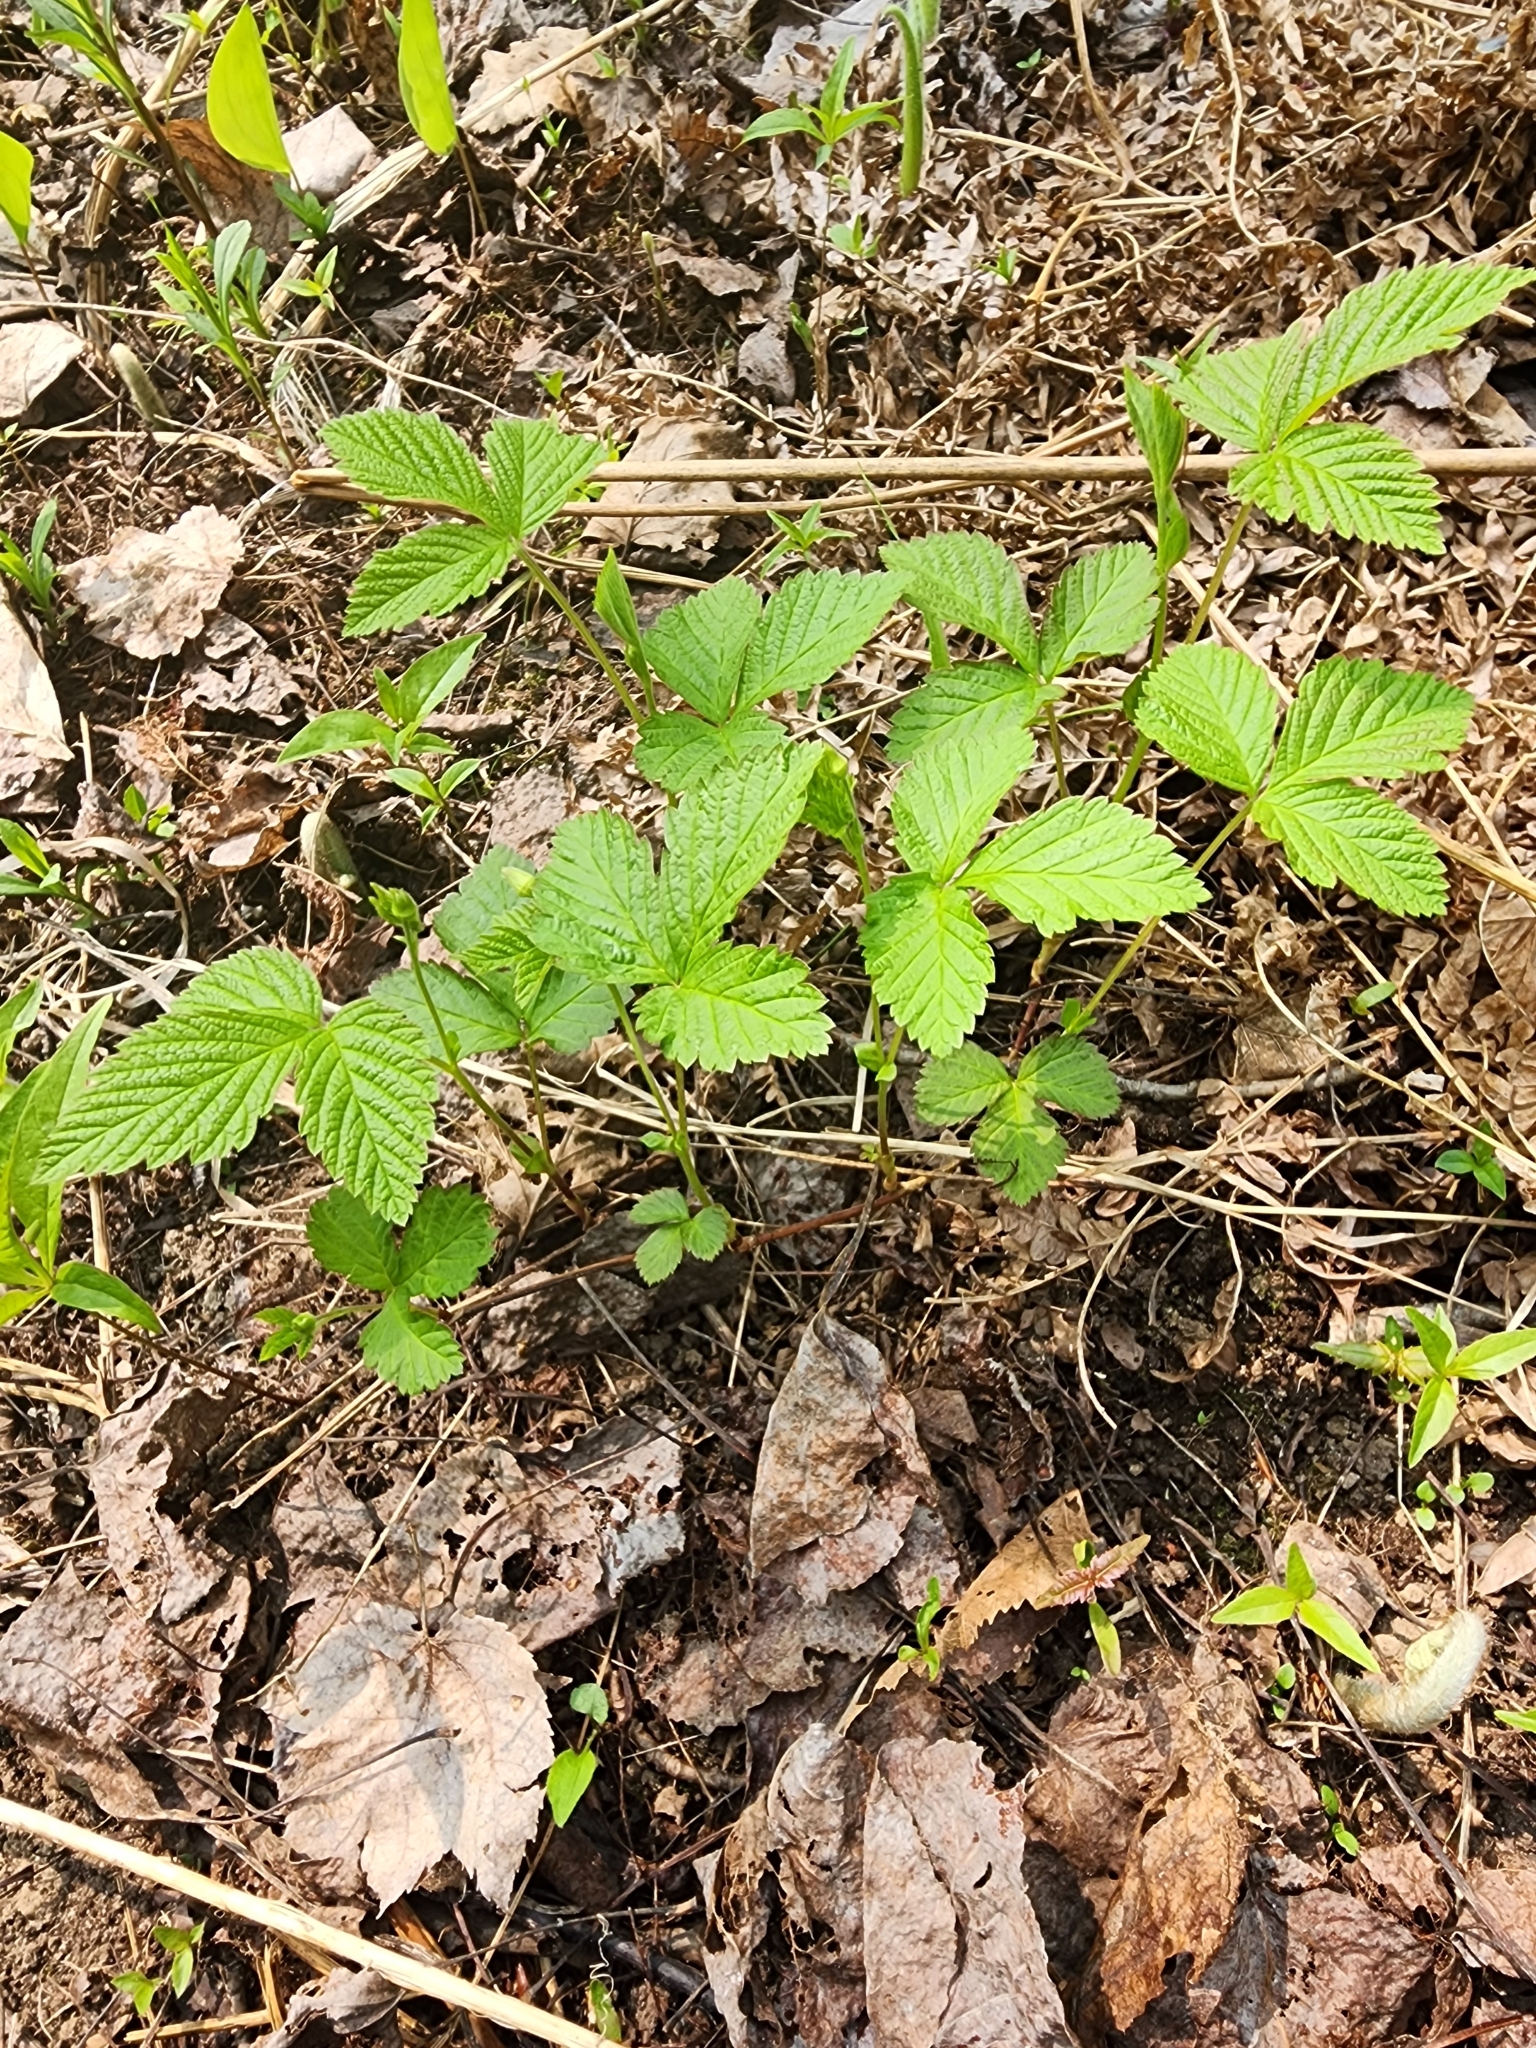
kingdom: Plantae
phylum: Tracheophyta
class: Magnoliopsida
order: Rosales
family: Rosaceae
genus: Rubus
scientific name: Rubus pubescens
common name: Dwarf raspberry
